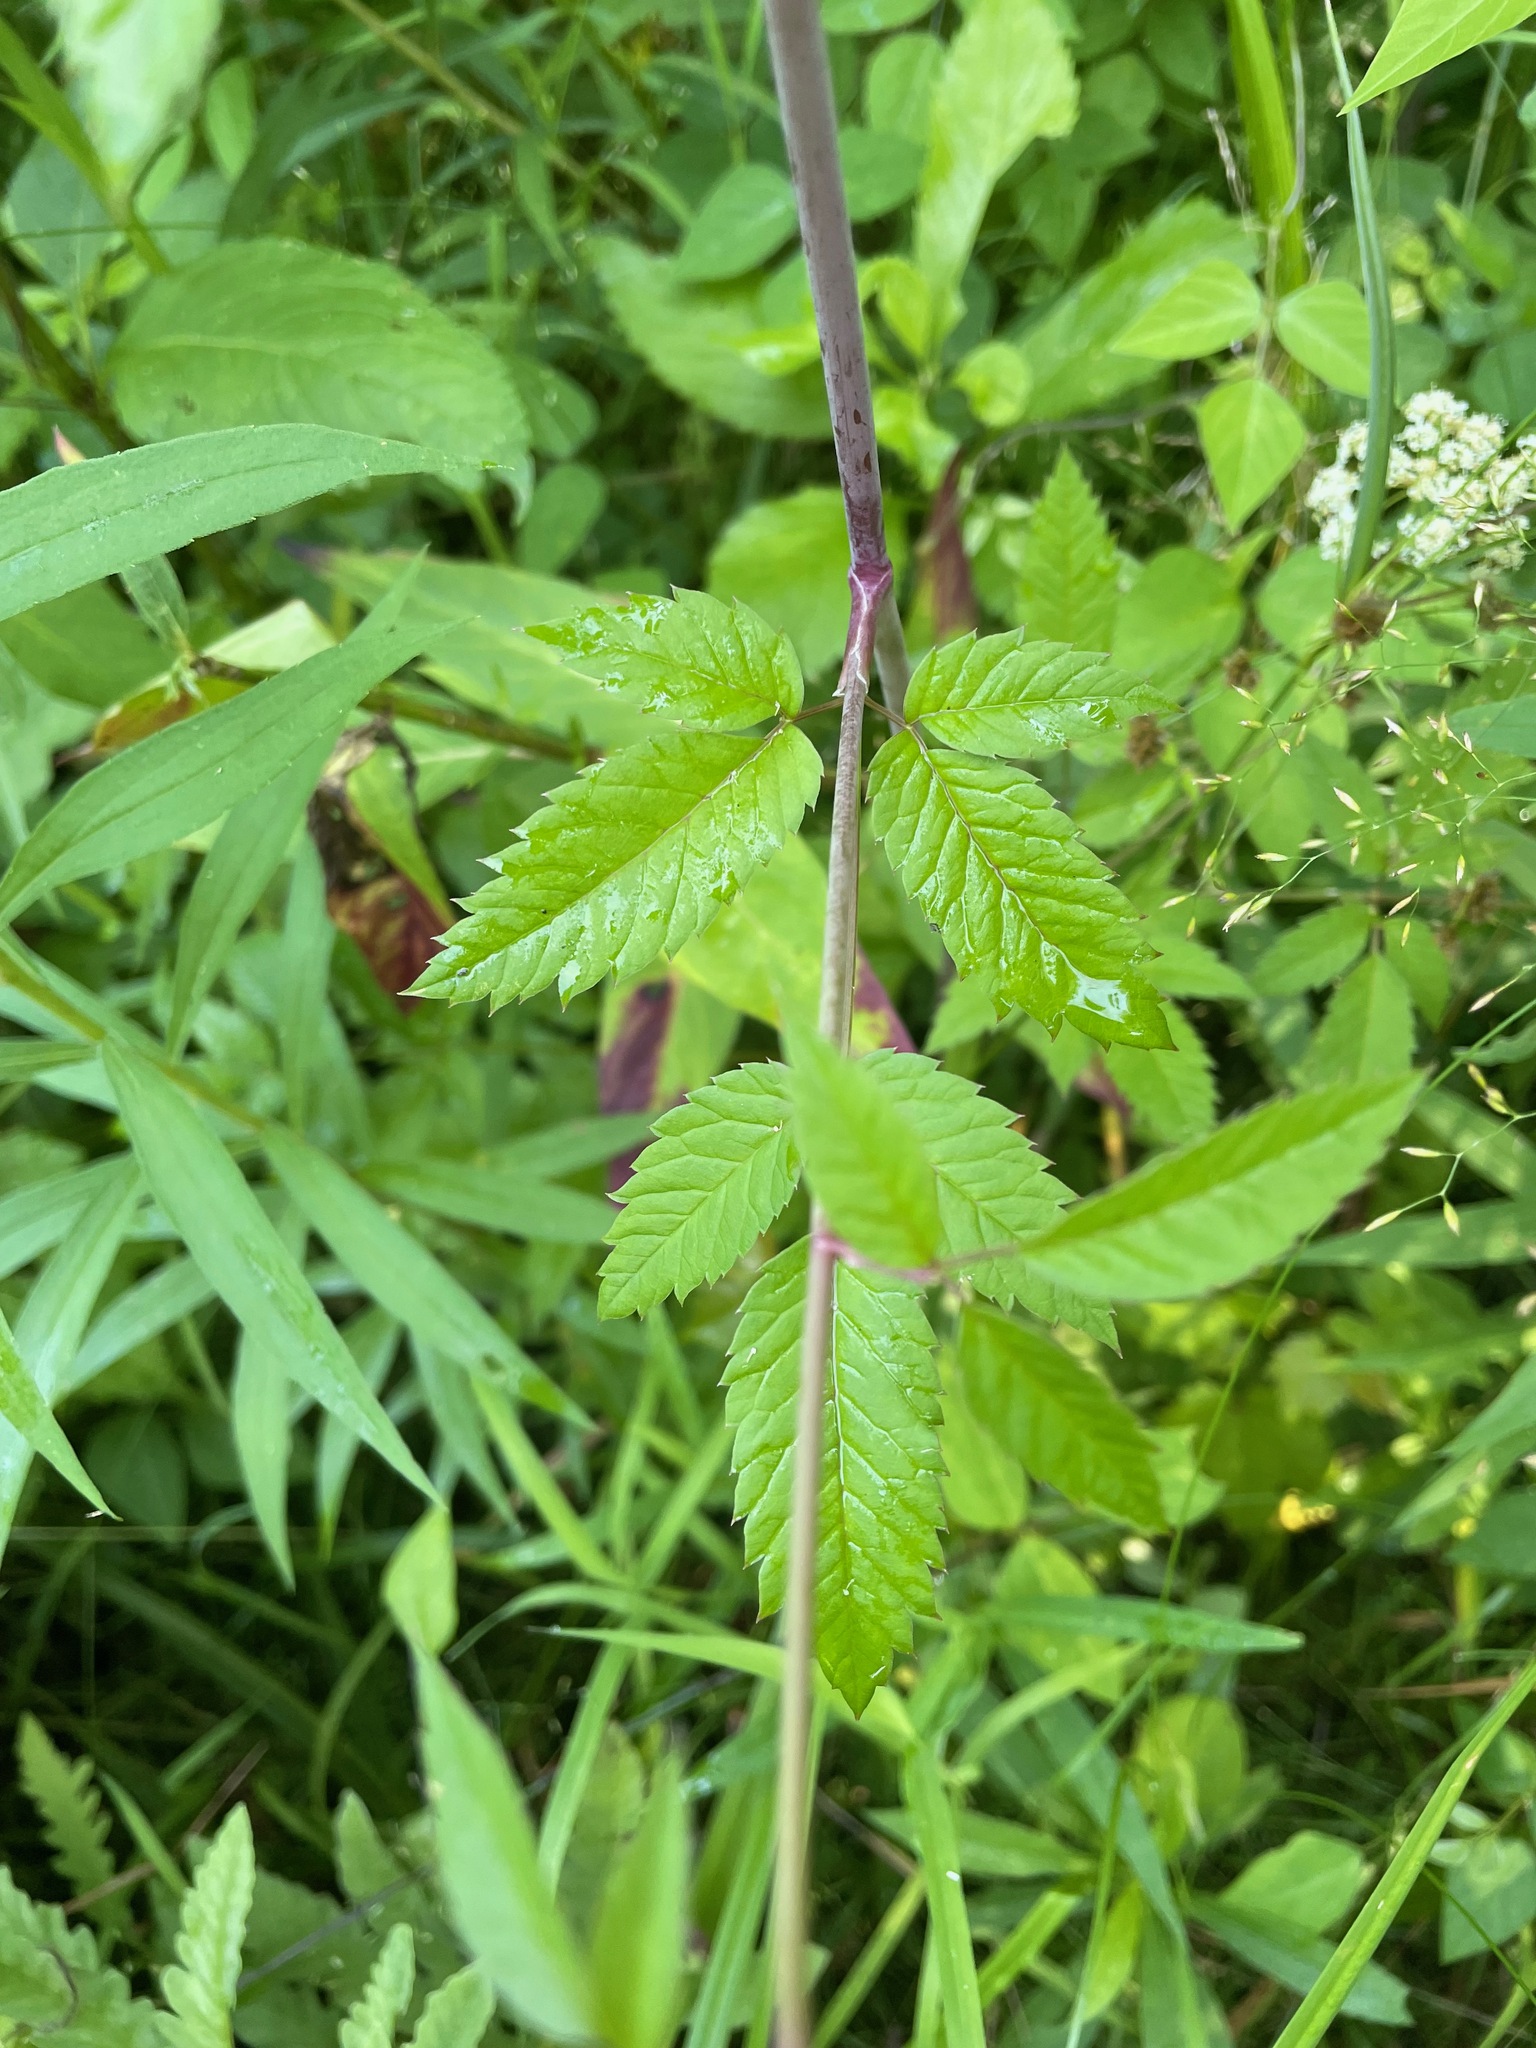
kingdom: Plantae
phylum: Tracheophyta
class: Magnoliopsida
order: Apiales
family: Apiaceae
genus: Cicuta
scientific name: Cicuta maculata
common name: Spotted cowbane
